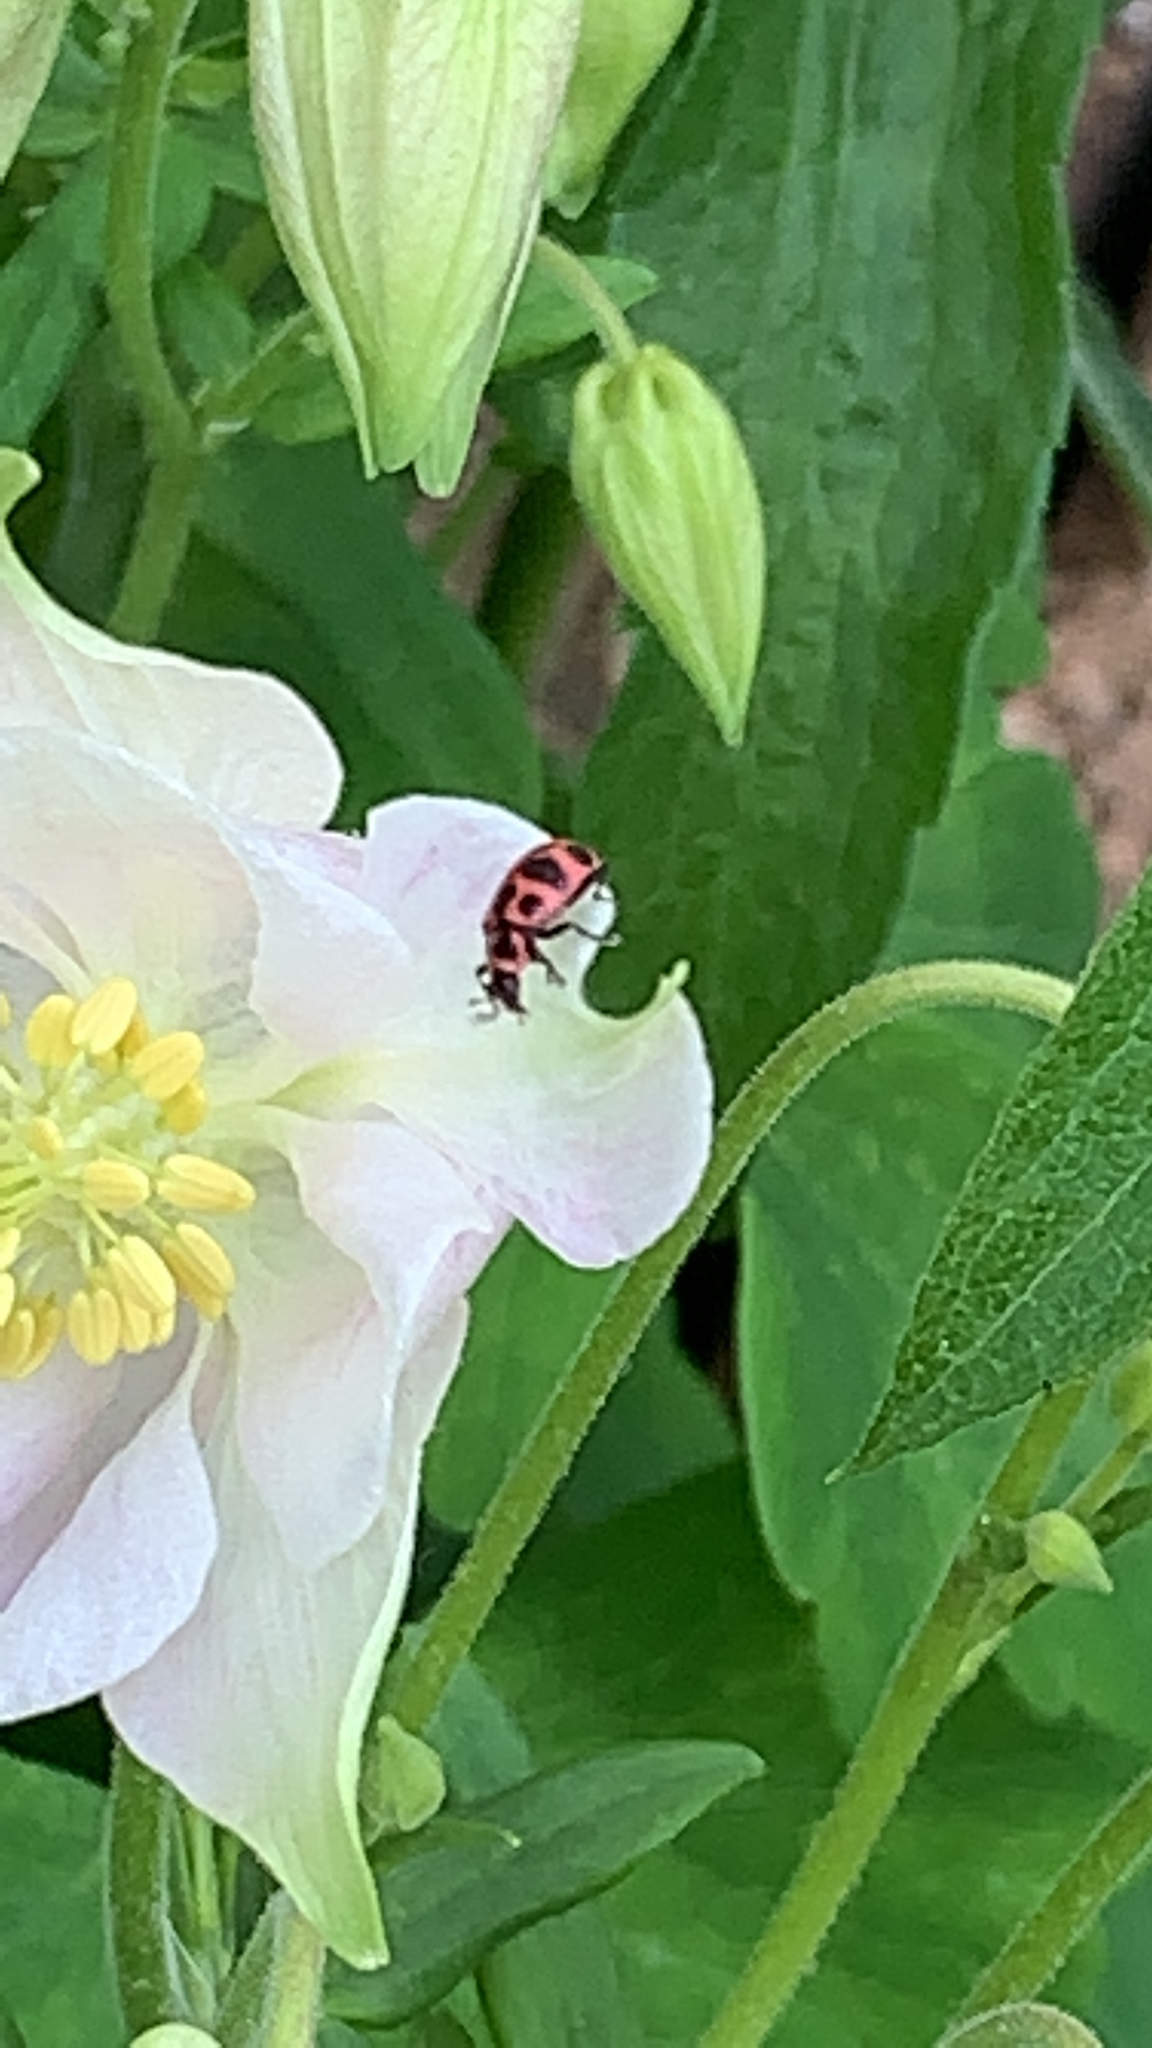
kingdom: Animalia
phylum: Arthropoda
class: Insecta
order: Coleoptera
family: Coccinellidae
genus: Coleomegilla
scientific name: Coleomegilla maculata
